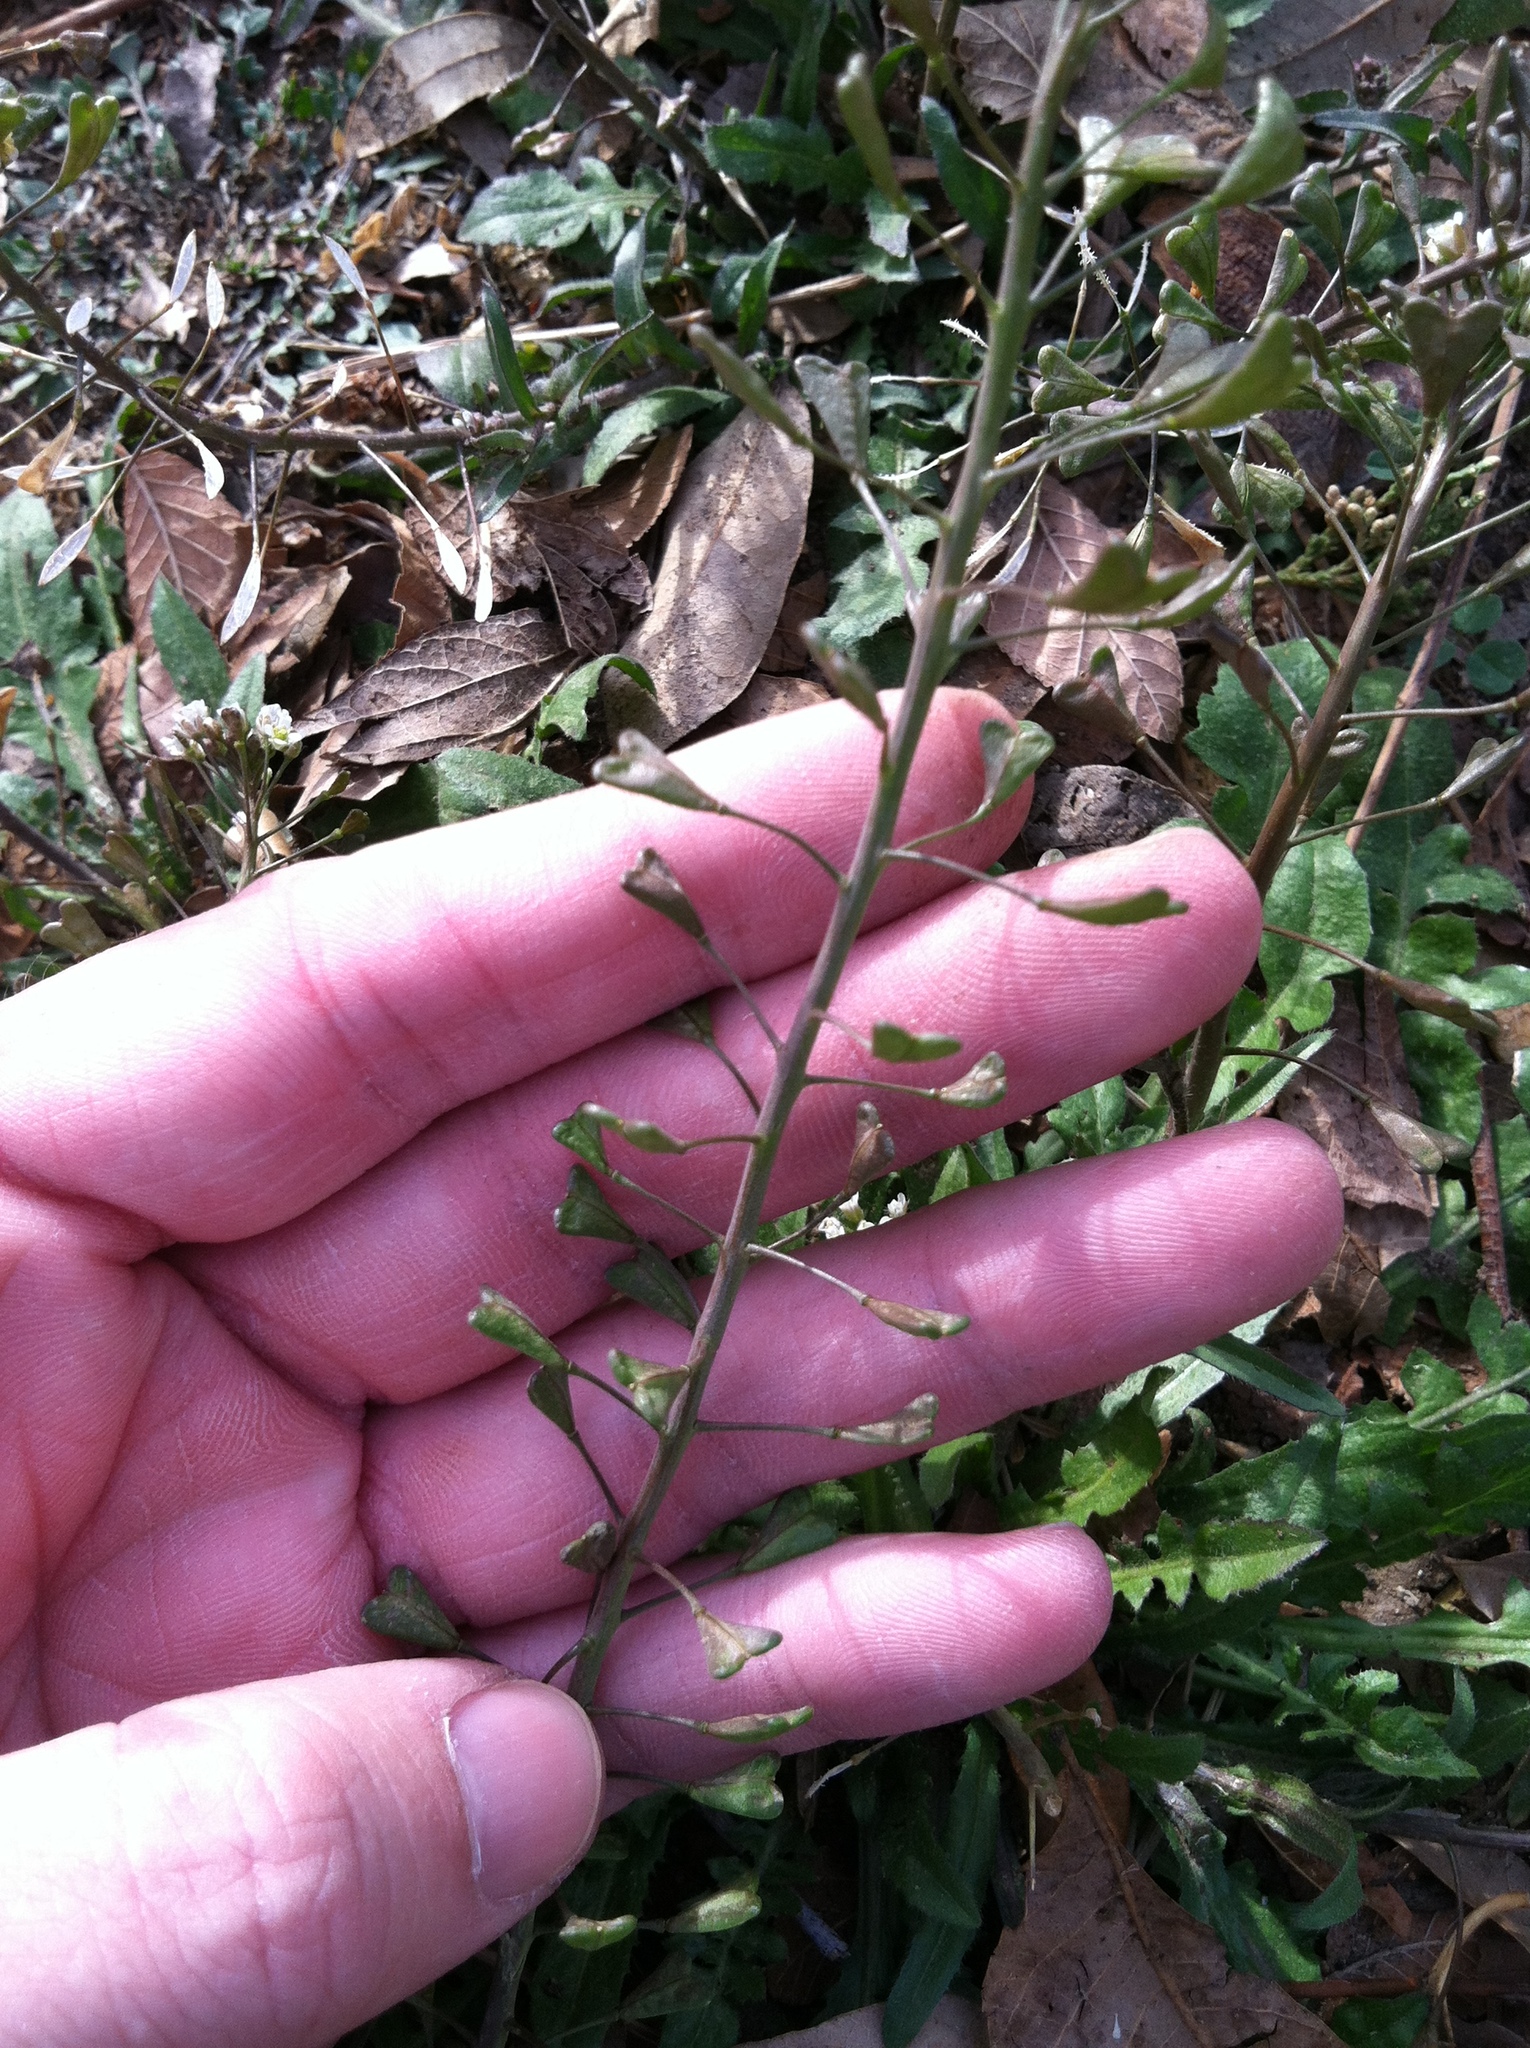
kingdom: Plantae
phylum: Tracheophyta
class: Magnoliopsida
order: Brassicales
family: Brassicaceae
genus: Capsella
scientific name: Capsella bursa-pastoris
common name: Shepherd's purse
